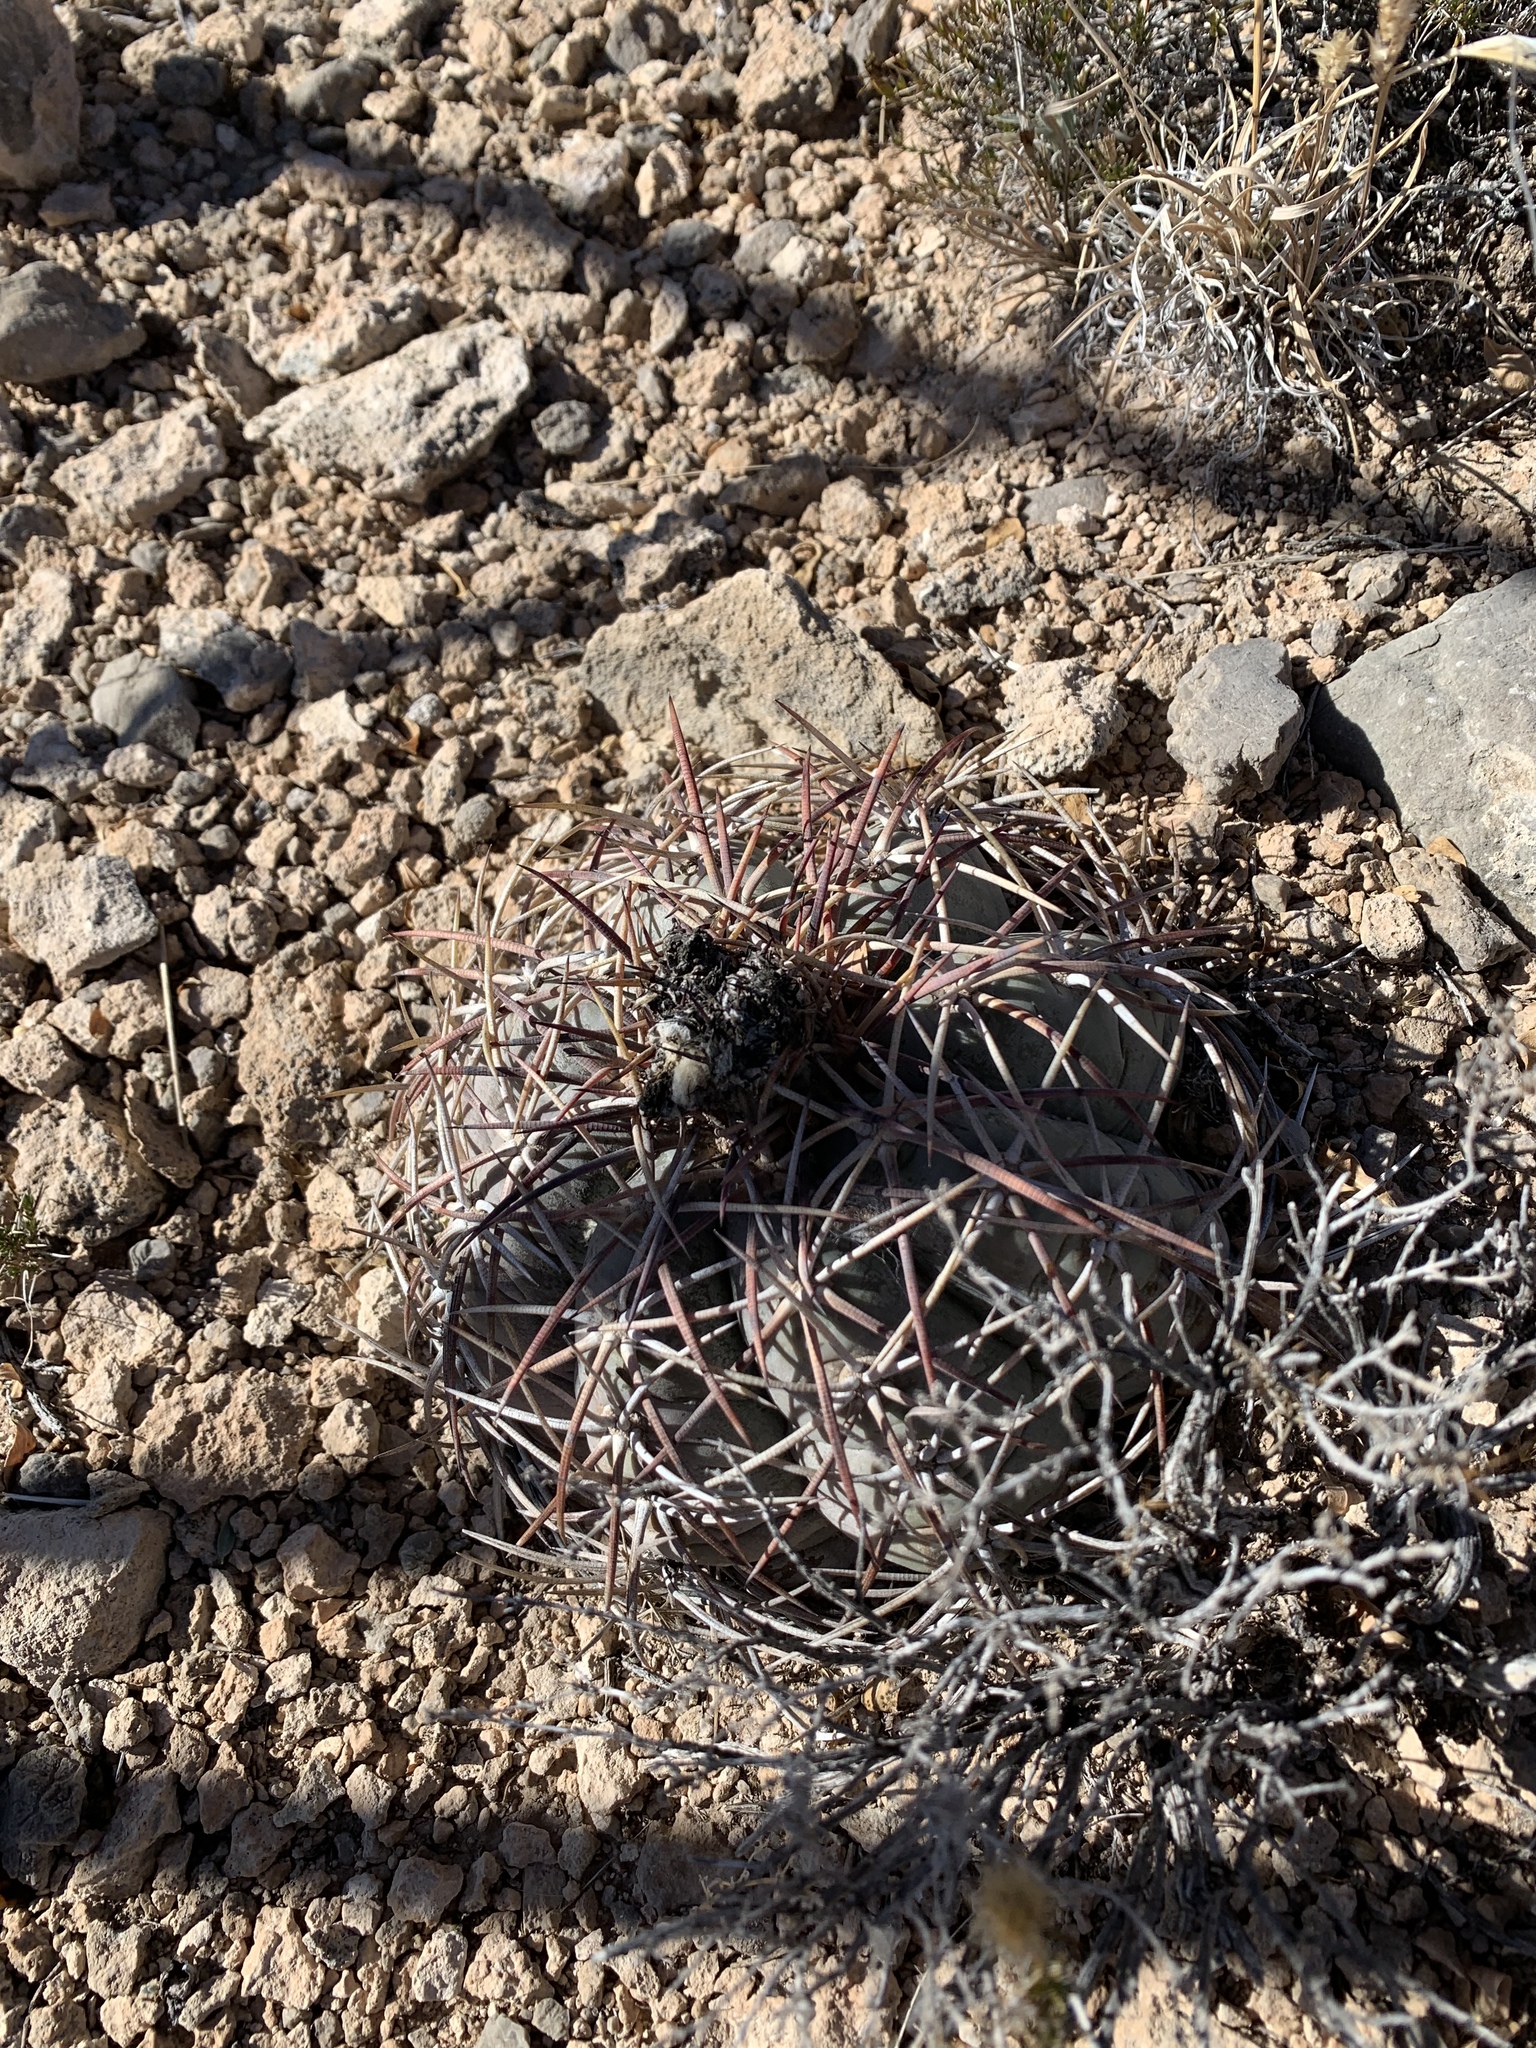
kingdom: Plantae
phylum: Tracheophyta
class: Magnoliopsida
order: Caryophyllales
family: Cactaceae
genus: Echinocactus
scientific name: Echinocactus horizonthalonius
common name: Devilshead
